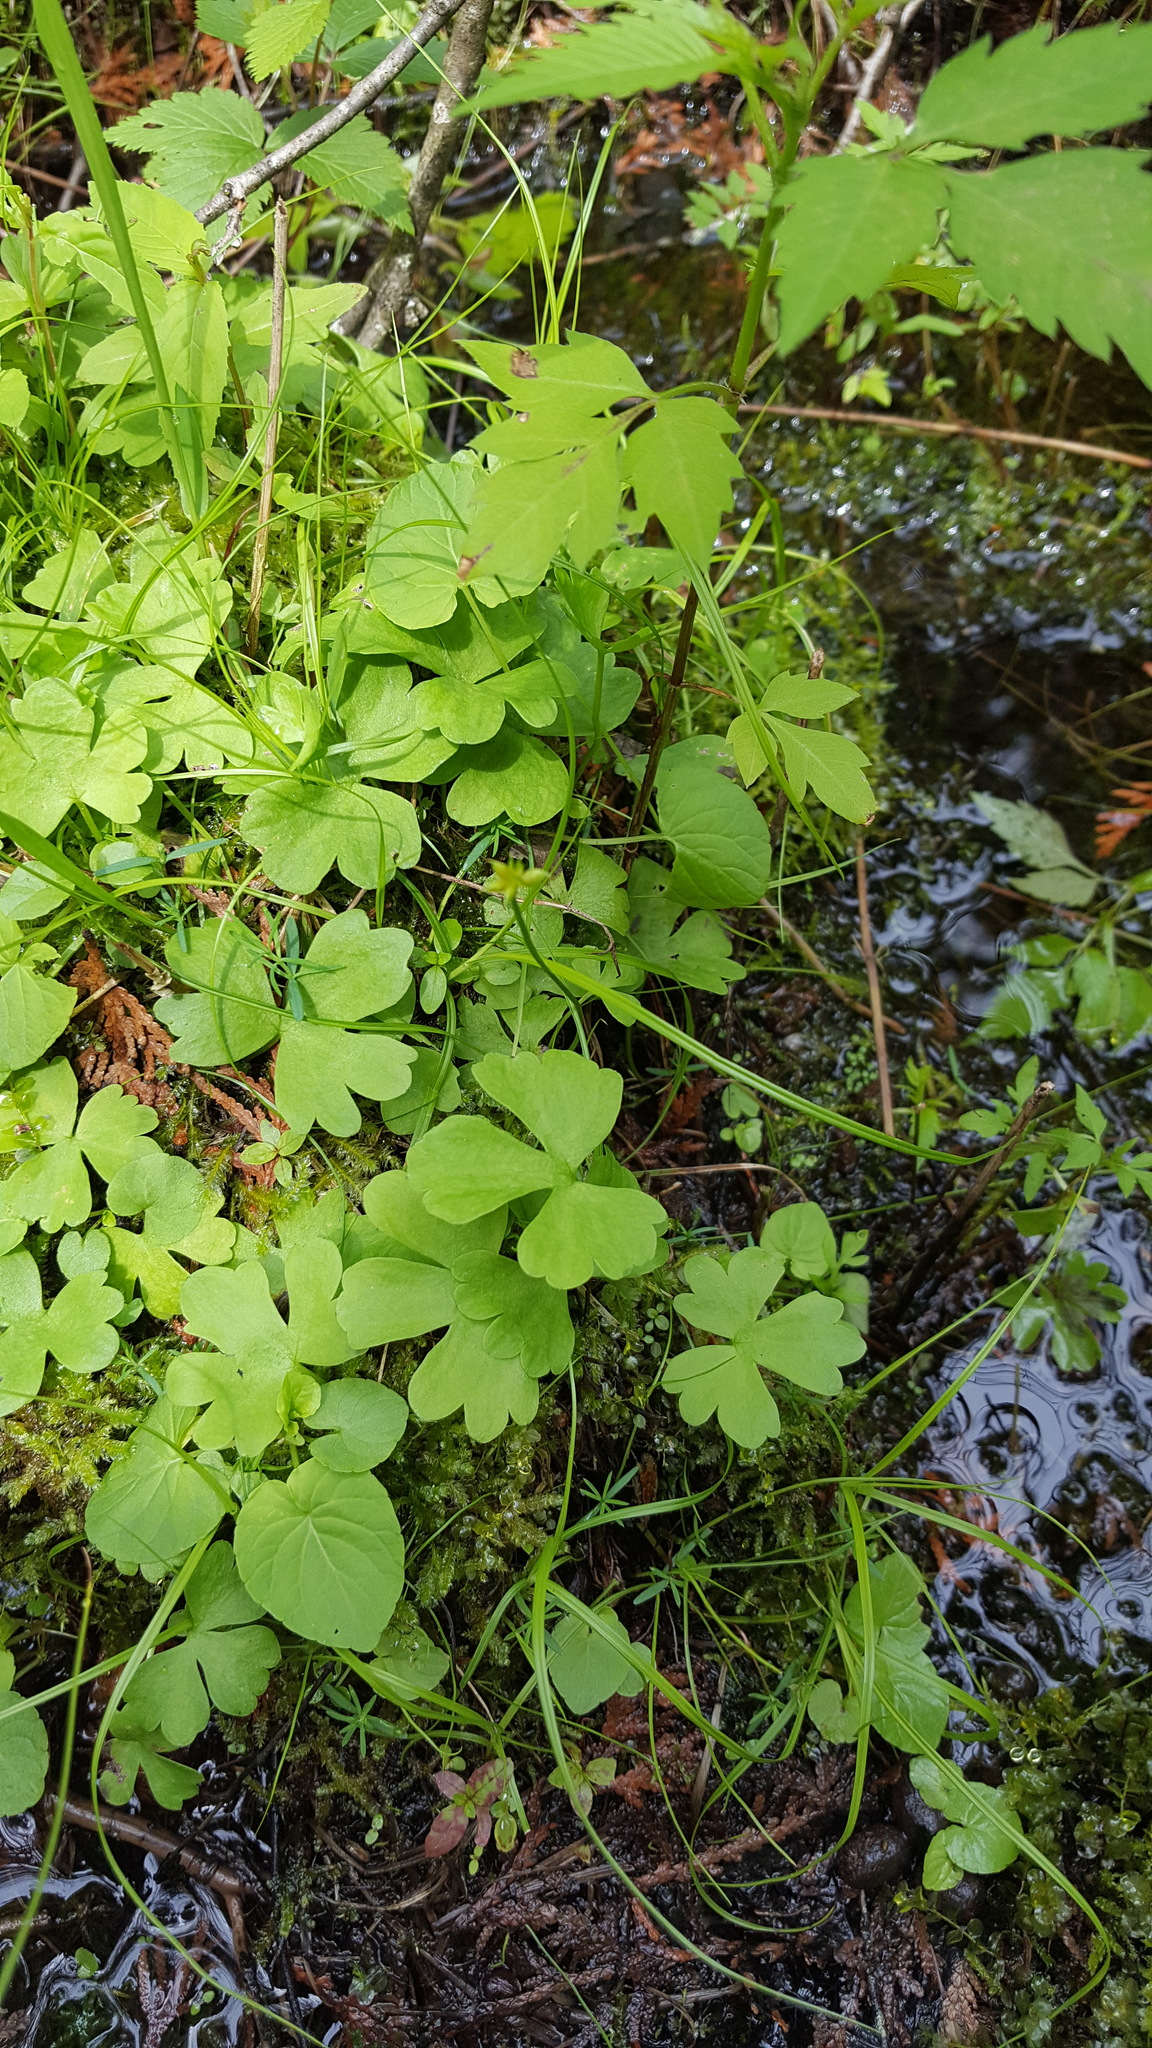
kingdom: Plantae
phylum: Tracheophyta
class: Magnoliopsida
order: Ranunculales
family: Ranunculaceae
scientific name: Ranunculaceae
